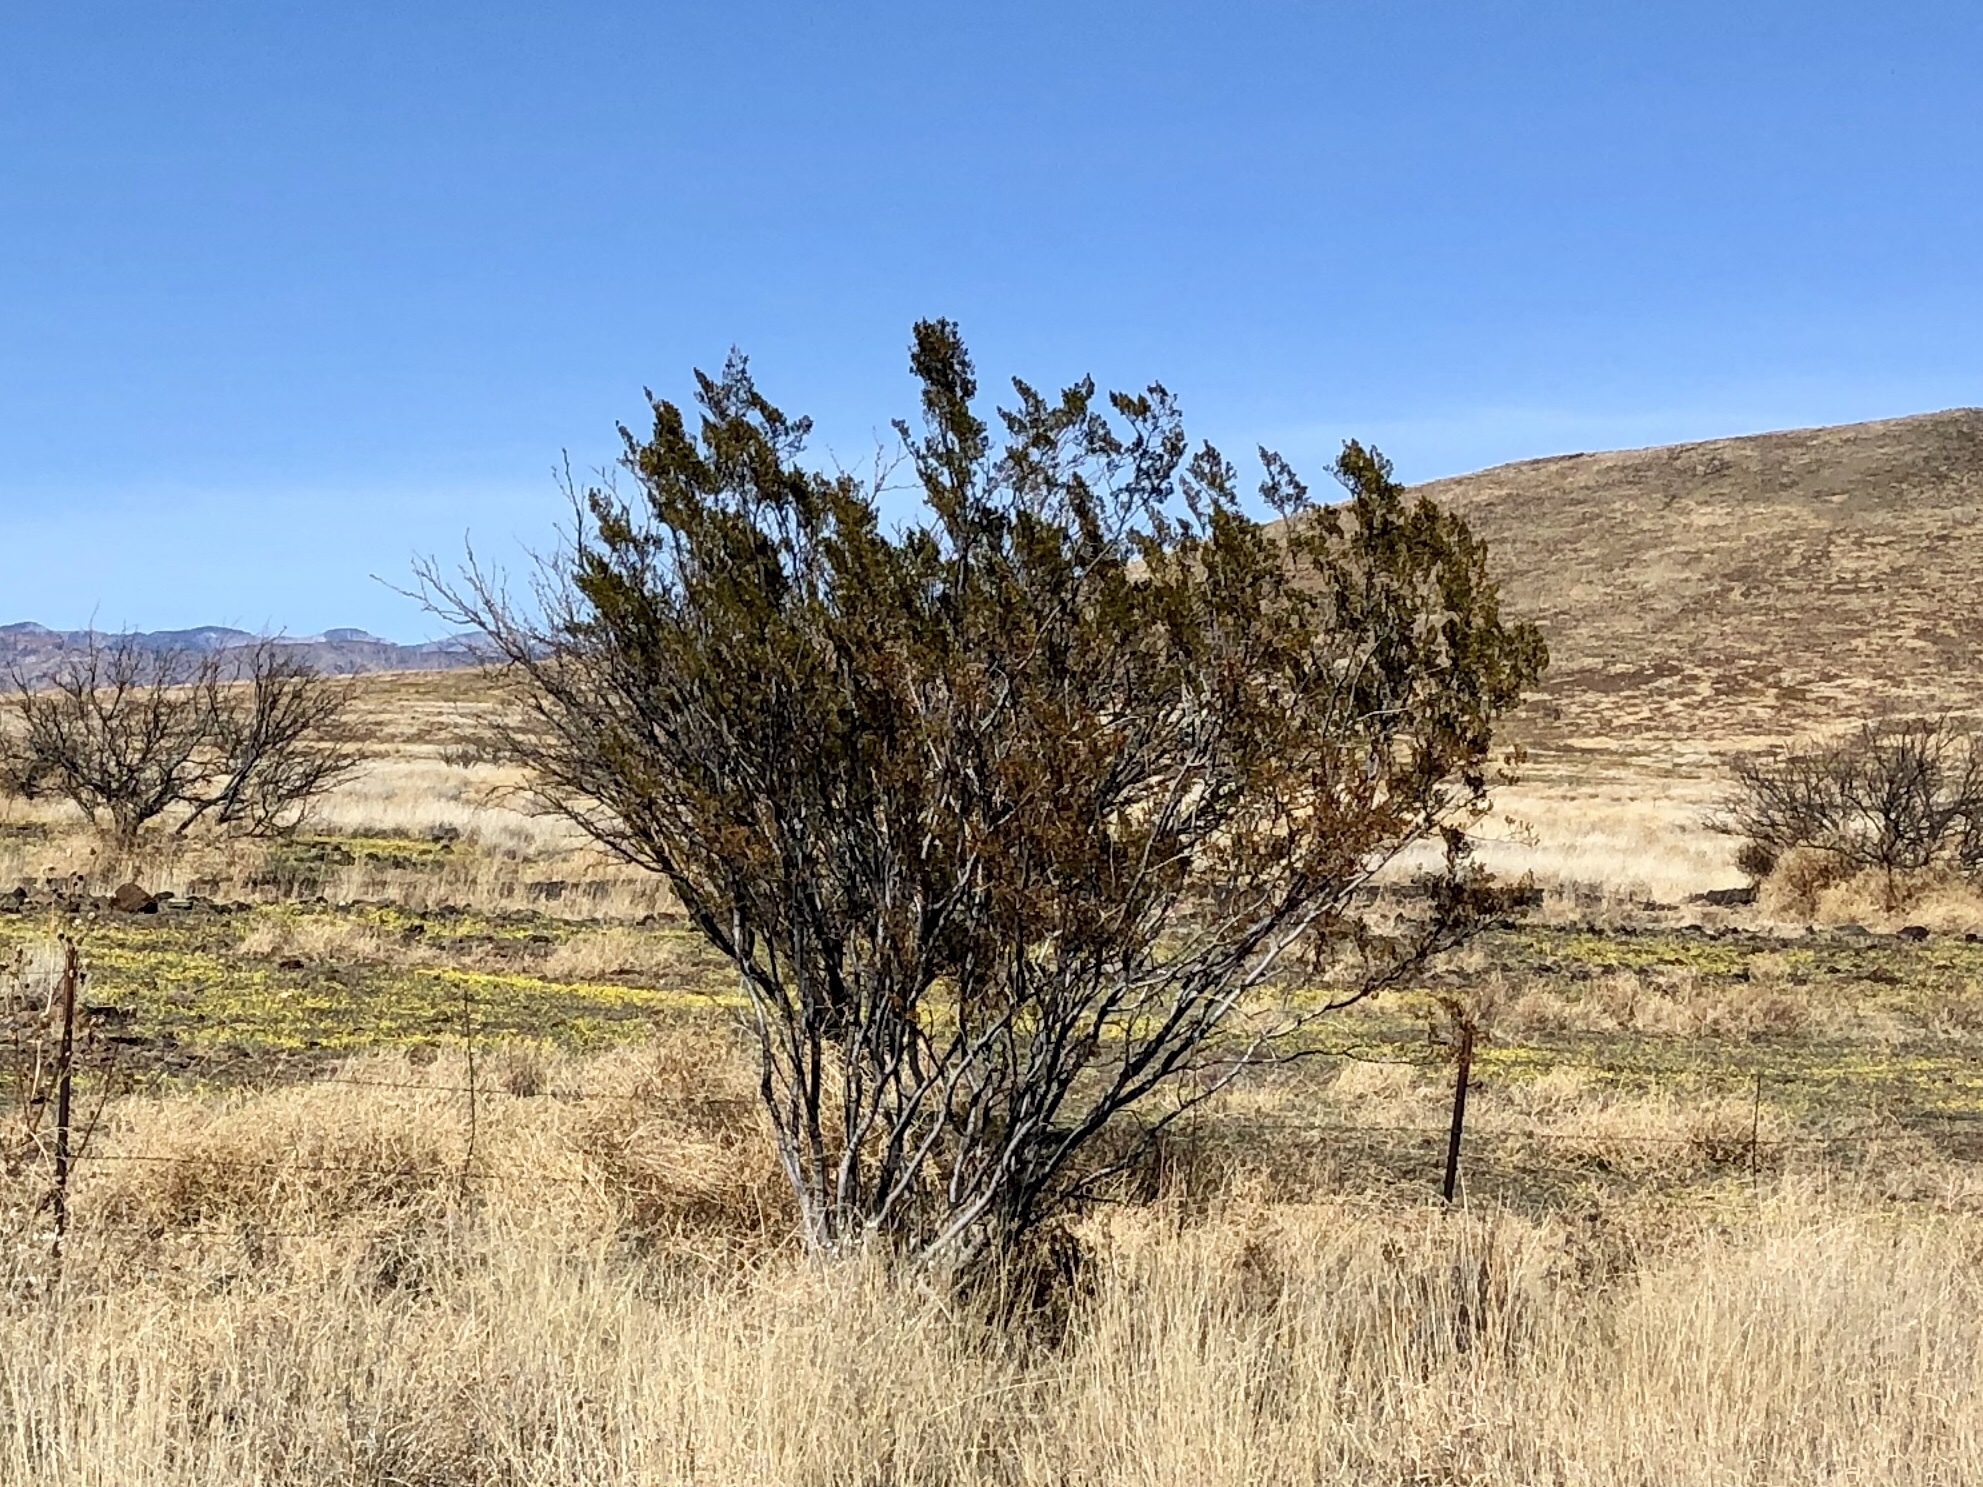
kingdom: Plantae
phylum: Tracheophyta
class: Magnoliopsida
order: Zygophyllales
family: Zygophyllaceae
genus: Larrea
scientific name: Larrea tridentata
